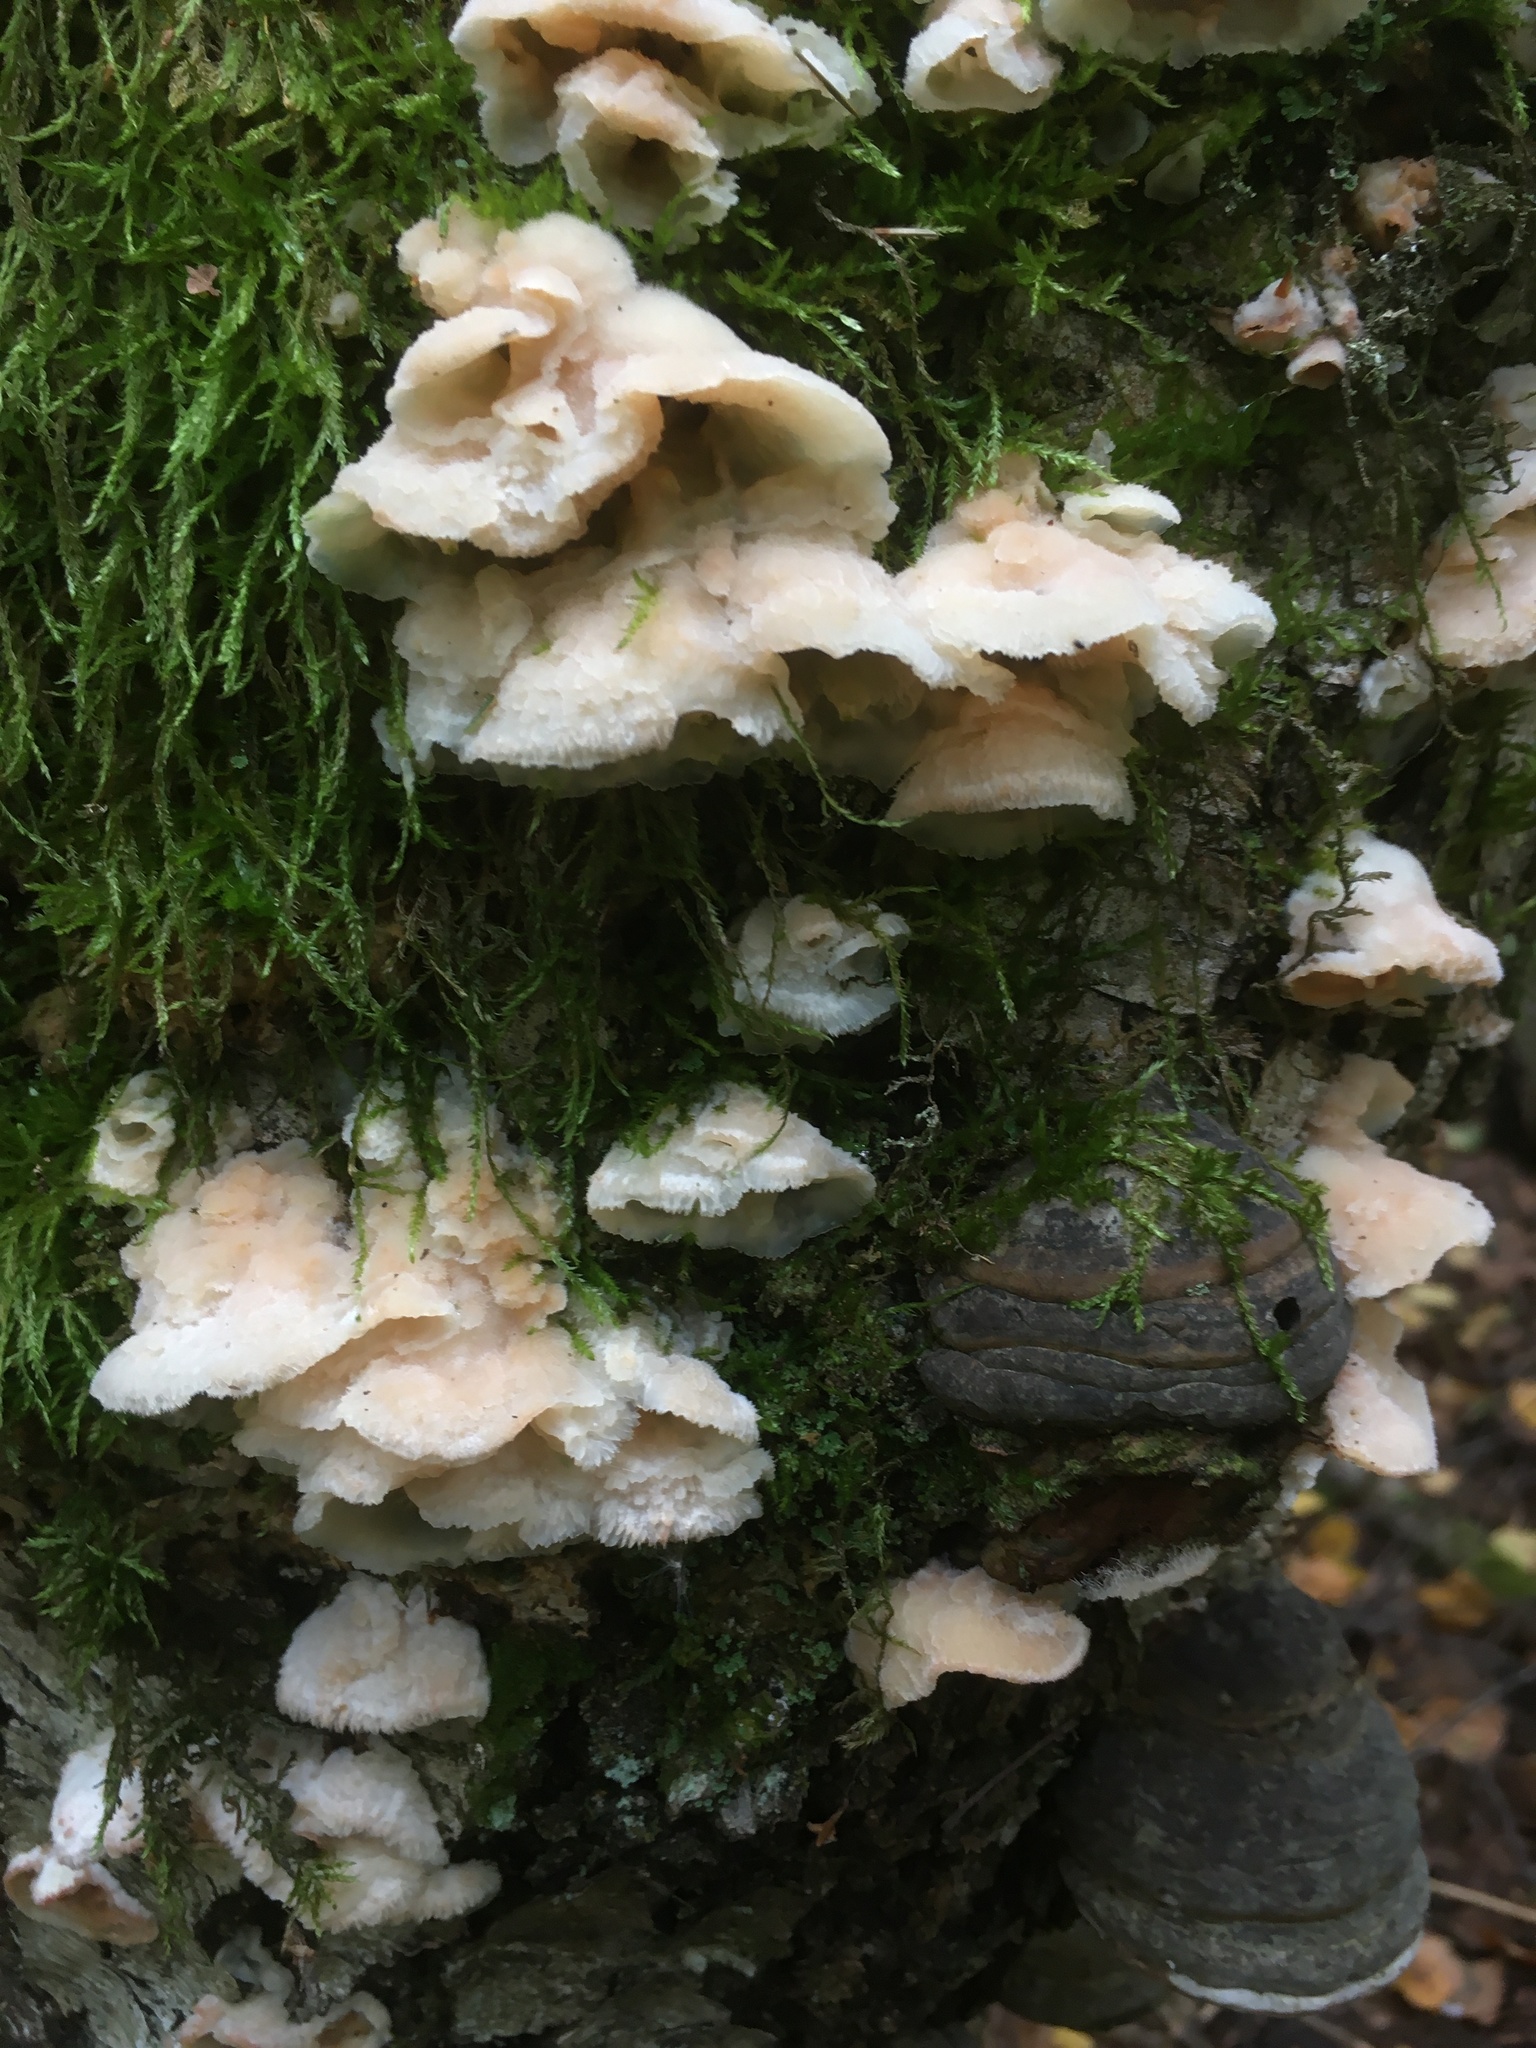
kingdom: Fungi
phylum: Basidiomycota
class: Agaricomycetes
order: Polyporales
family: Meruliaceae
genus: Phlebia
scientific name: Phlebia tremellosa
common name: Jelly rot
